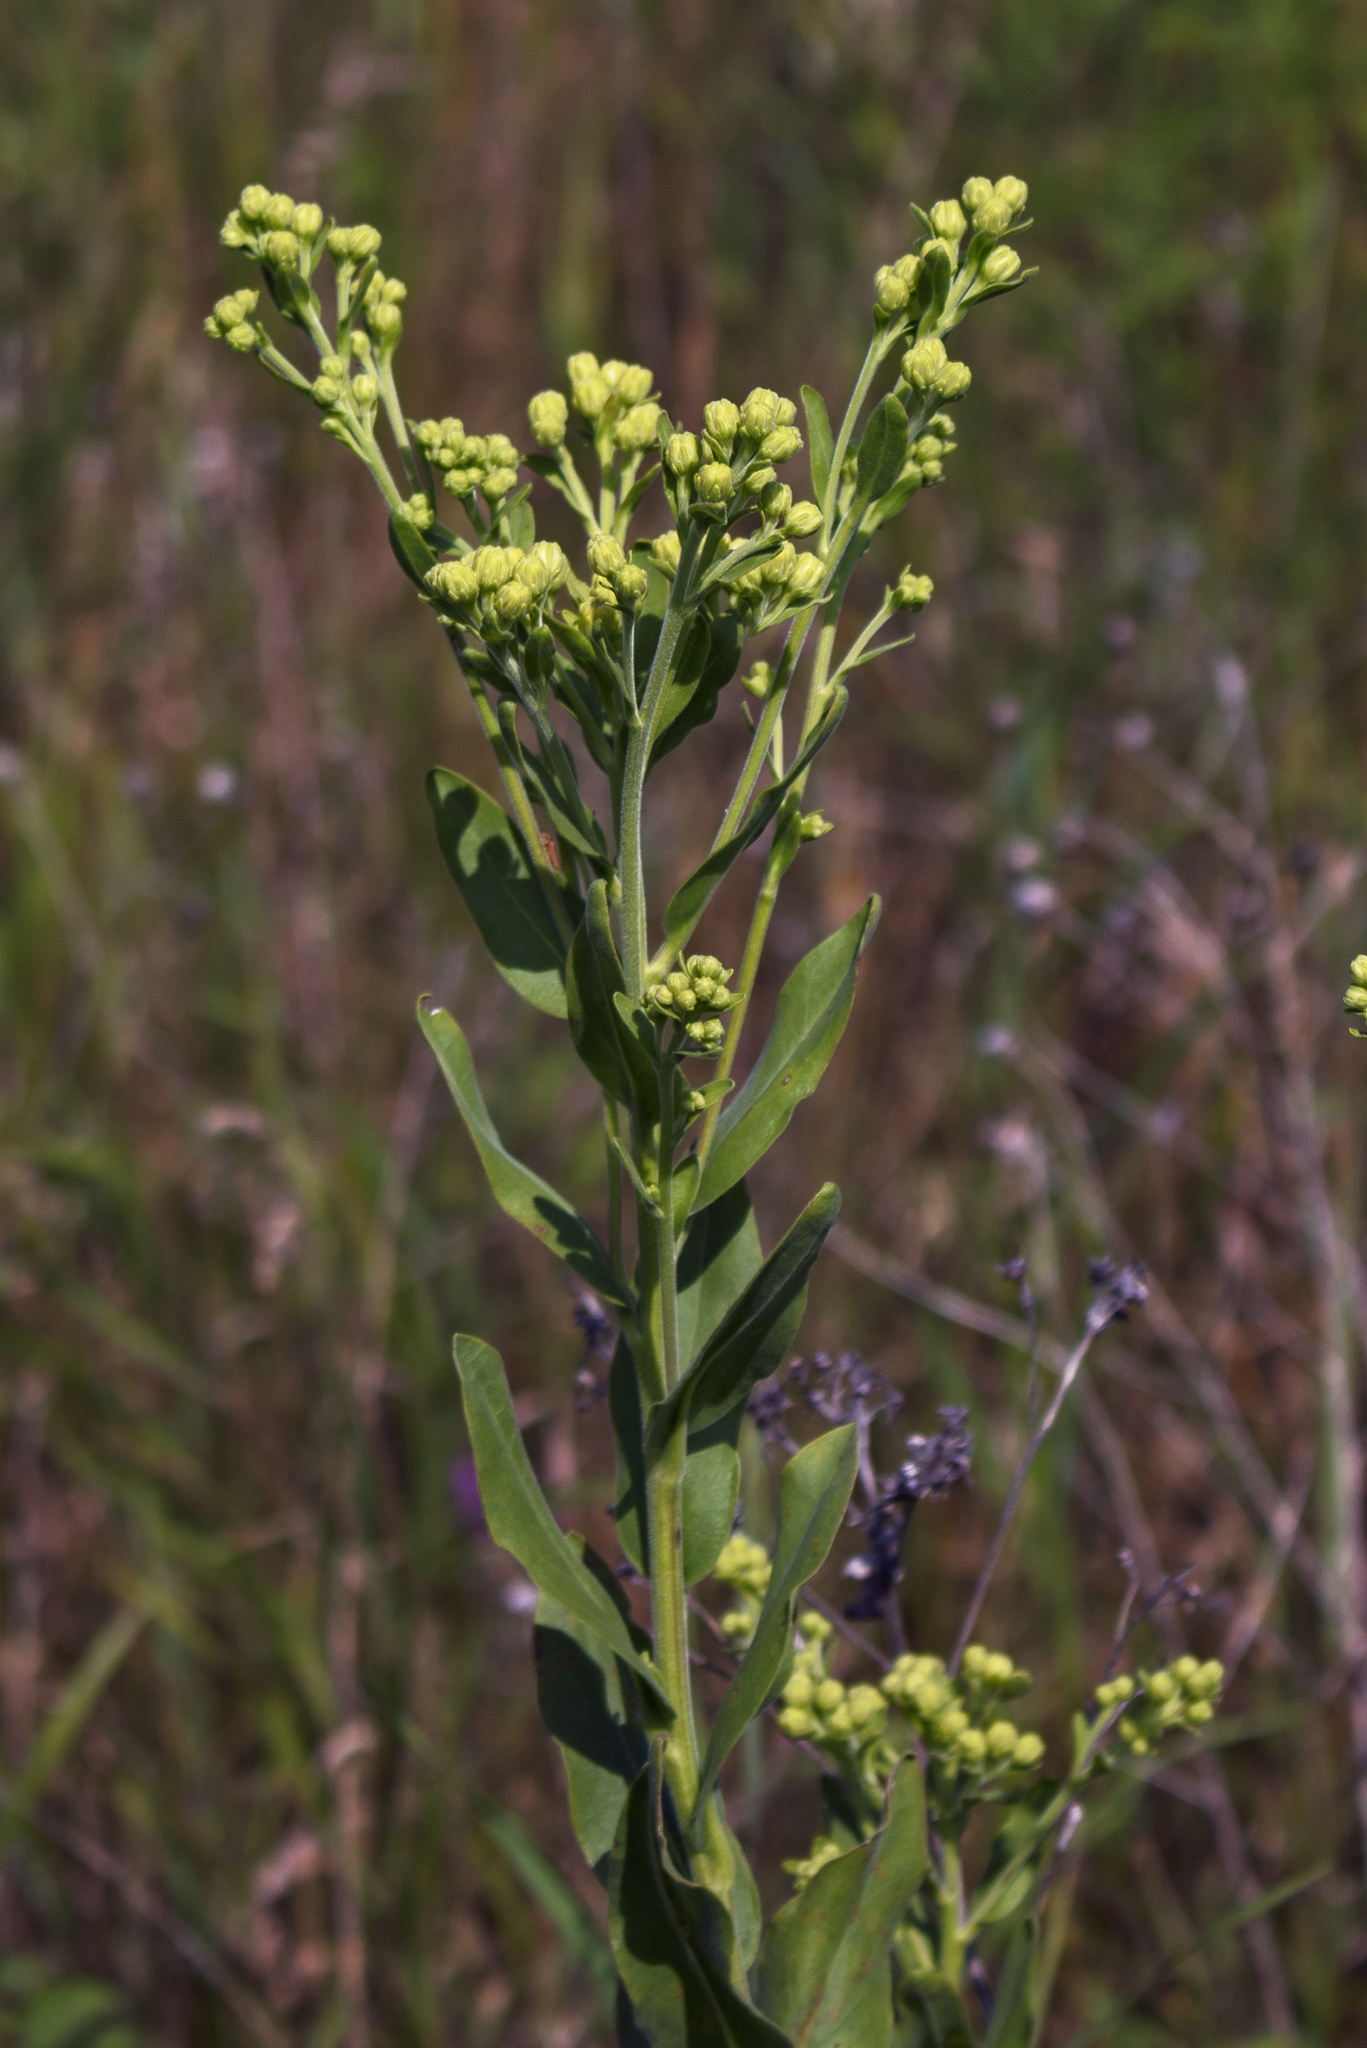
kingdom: Plantae
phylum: Tracheophyta
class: Magnoliopsida
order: Asterales
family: Asteraceae
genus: Solidago
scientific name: Solidago rigida
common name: Rigid goldenrod
